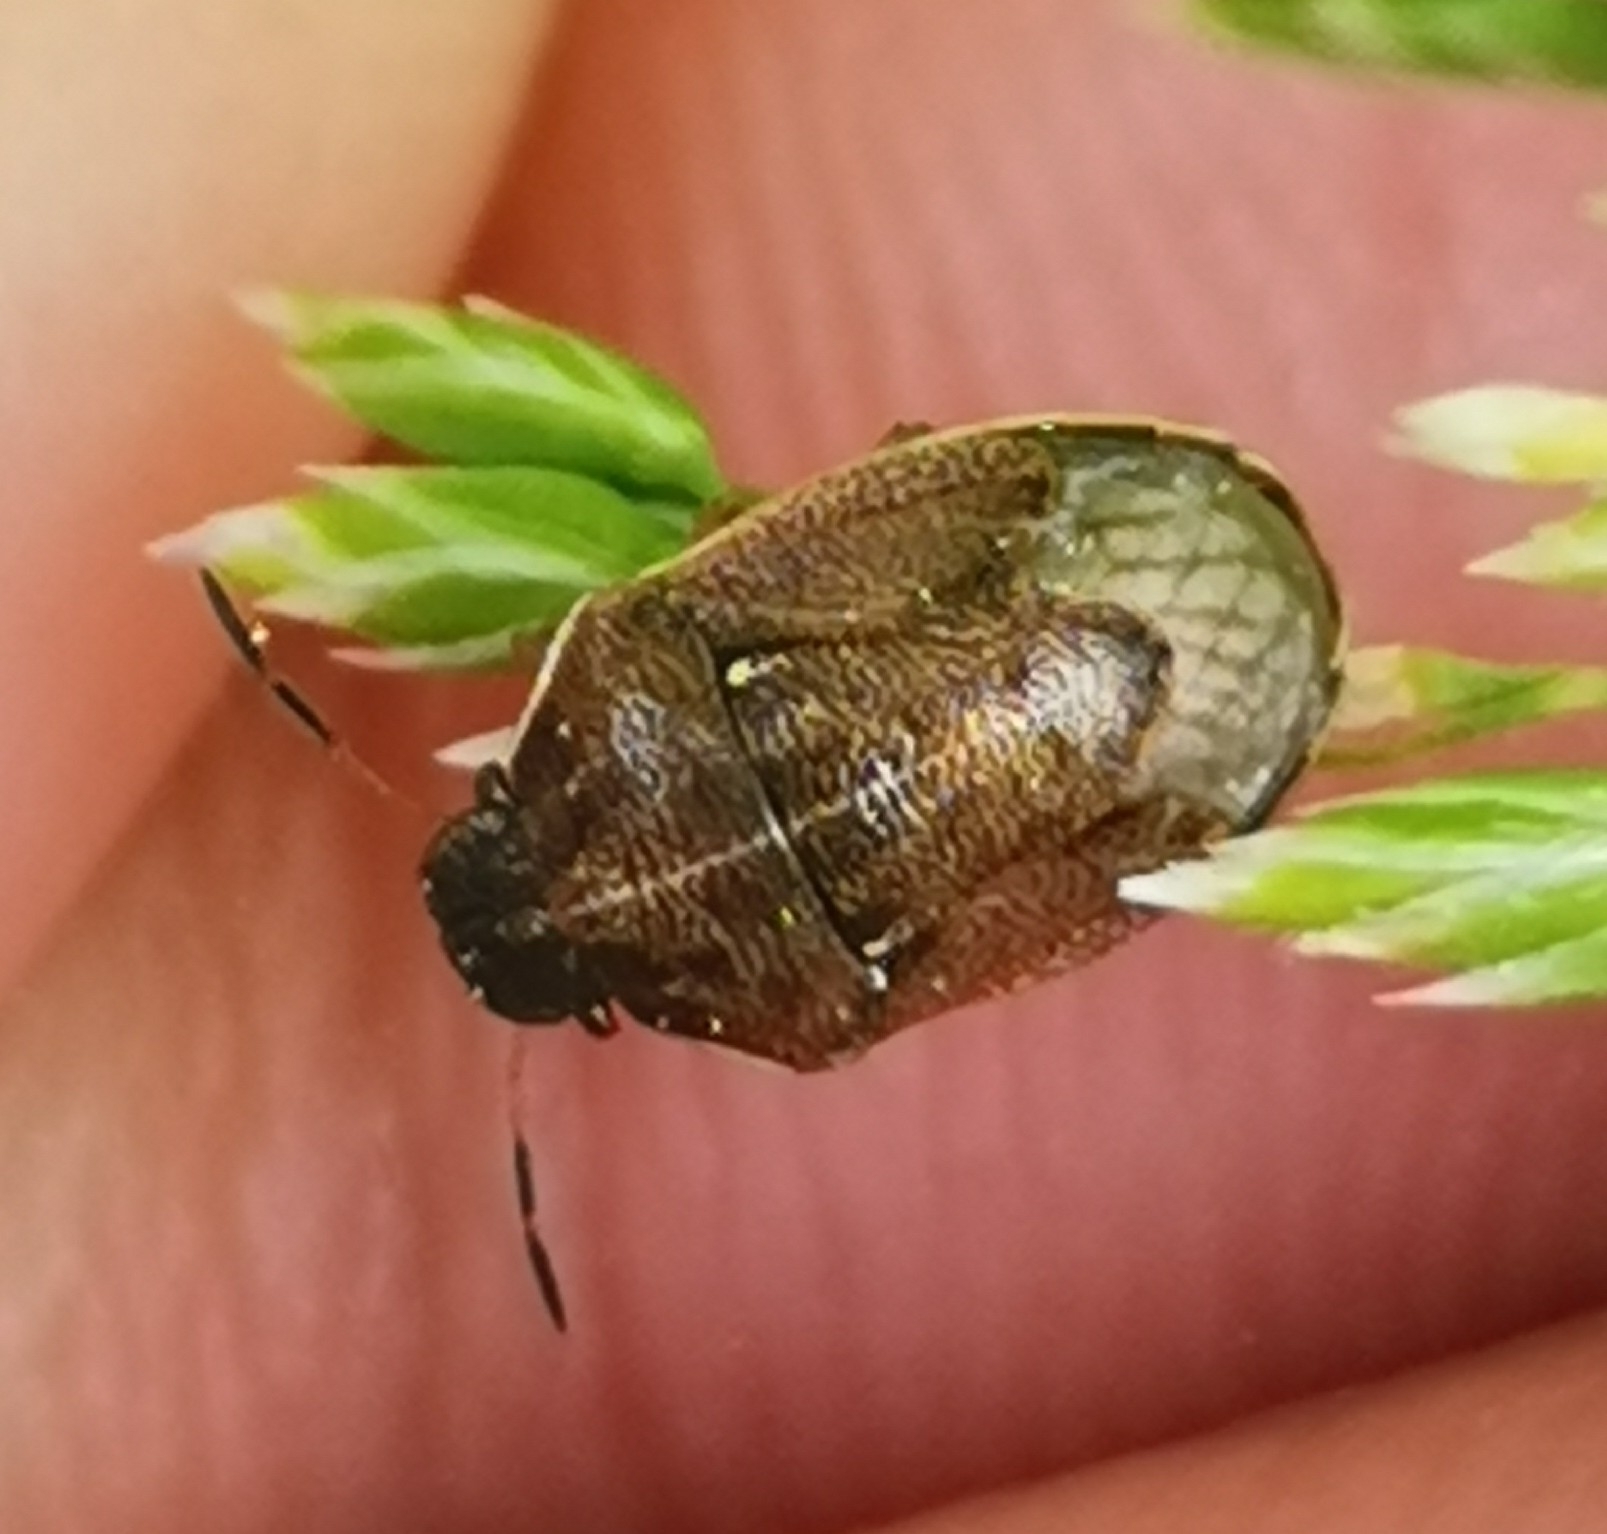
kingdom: Animalia
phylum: Arthropoda
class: Insecta
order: Hemiptera
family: Pentatomidae
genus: Neottiglossa
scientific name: Neottiglossa pusilla
